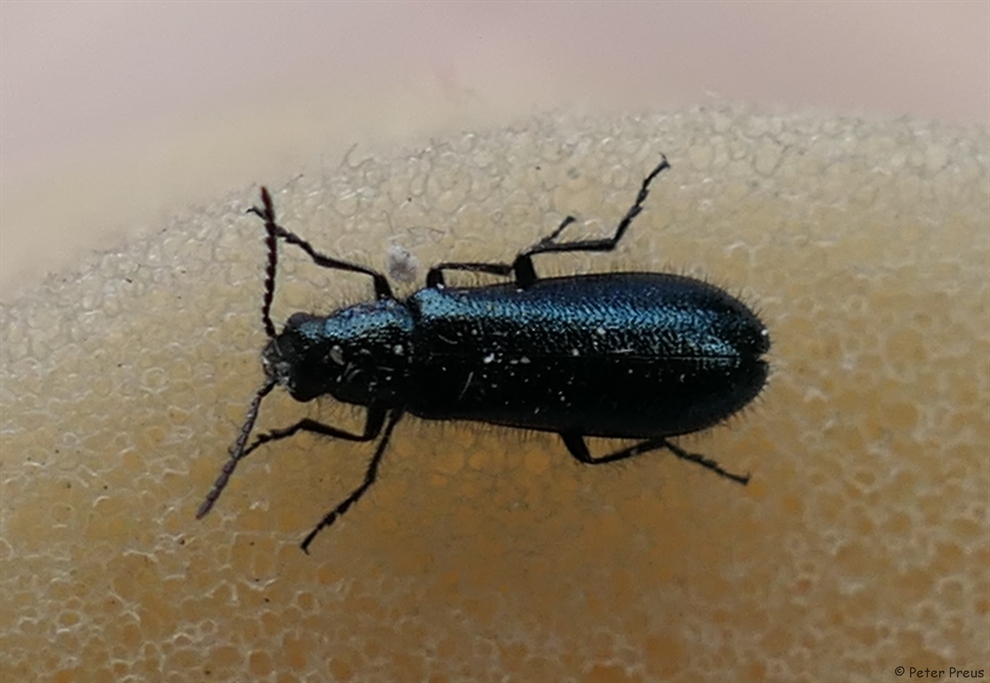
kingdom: Animalia
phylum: Arthropoda
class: Insecta
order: Coleoptera
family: Melyridae
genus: Dasytes
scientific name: Dasytes caeruleus
